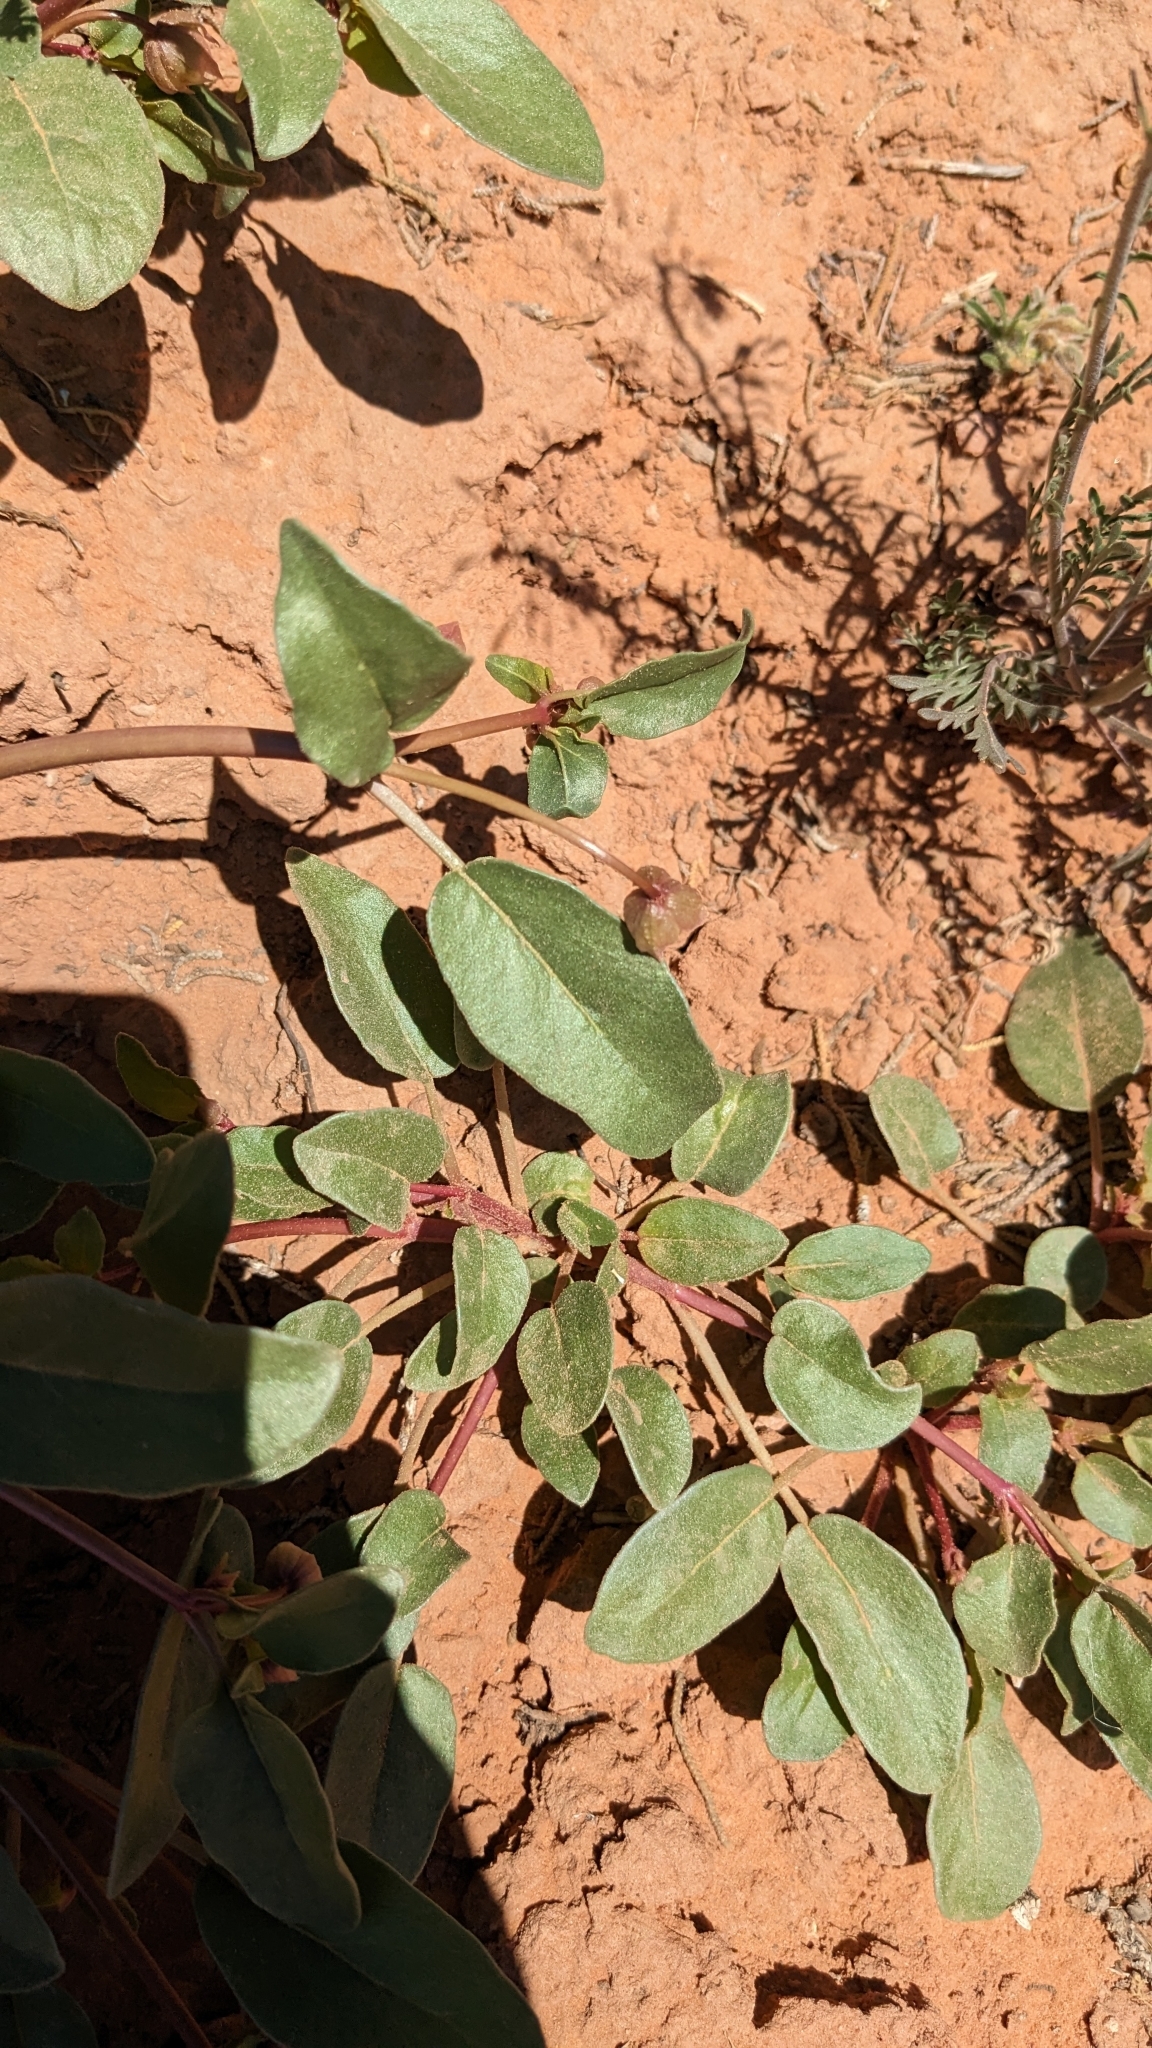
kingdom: Plantae
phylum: Tracheophyta
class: Magnoliopsida
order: Caryophyllales
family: Nyctaginaceae
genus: Abronia
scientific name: Abronia elliptica
